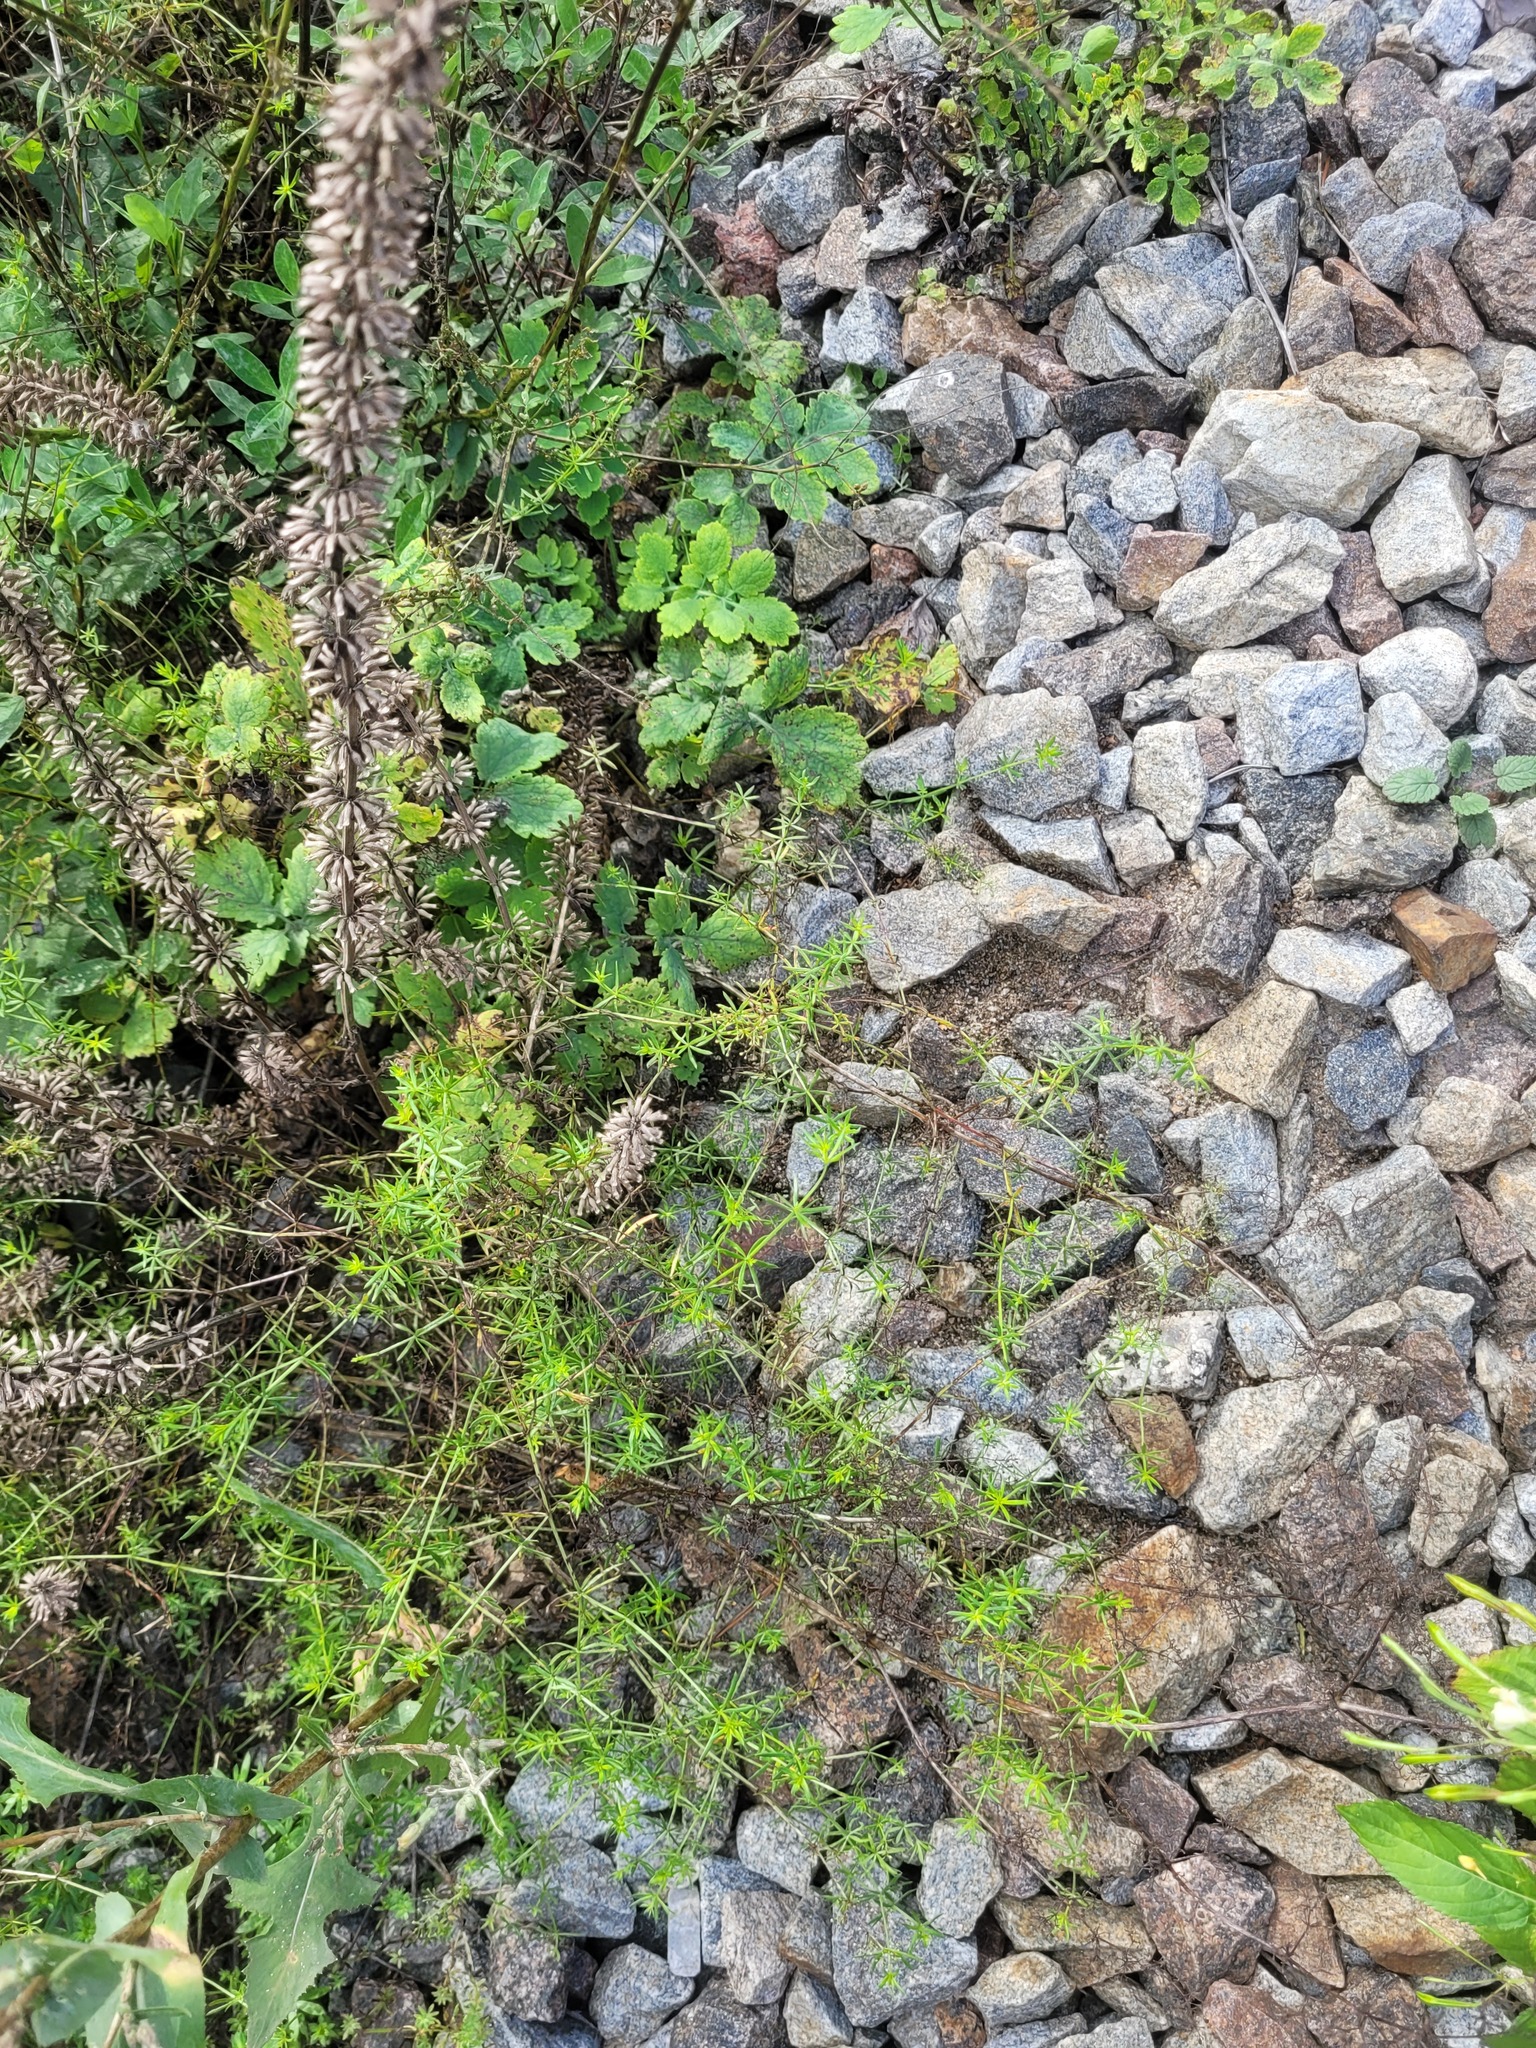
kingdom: Plantae
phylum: Tracheophyta
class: Magnoliopsida
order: Gentianales
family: Rubiaceae
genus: Galium
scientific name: Galium mollugo
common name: Hedge bedstraw
